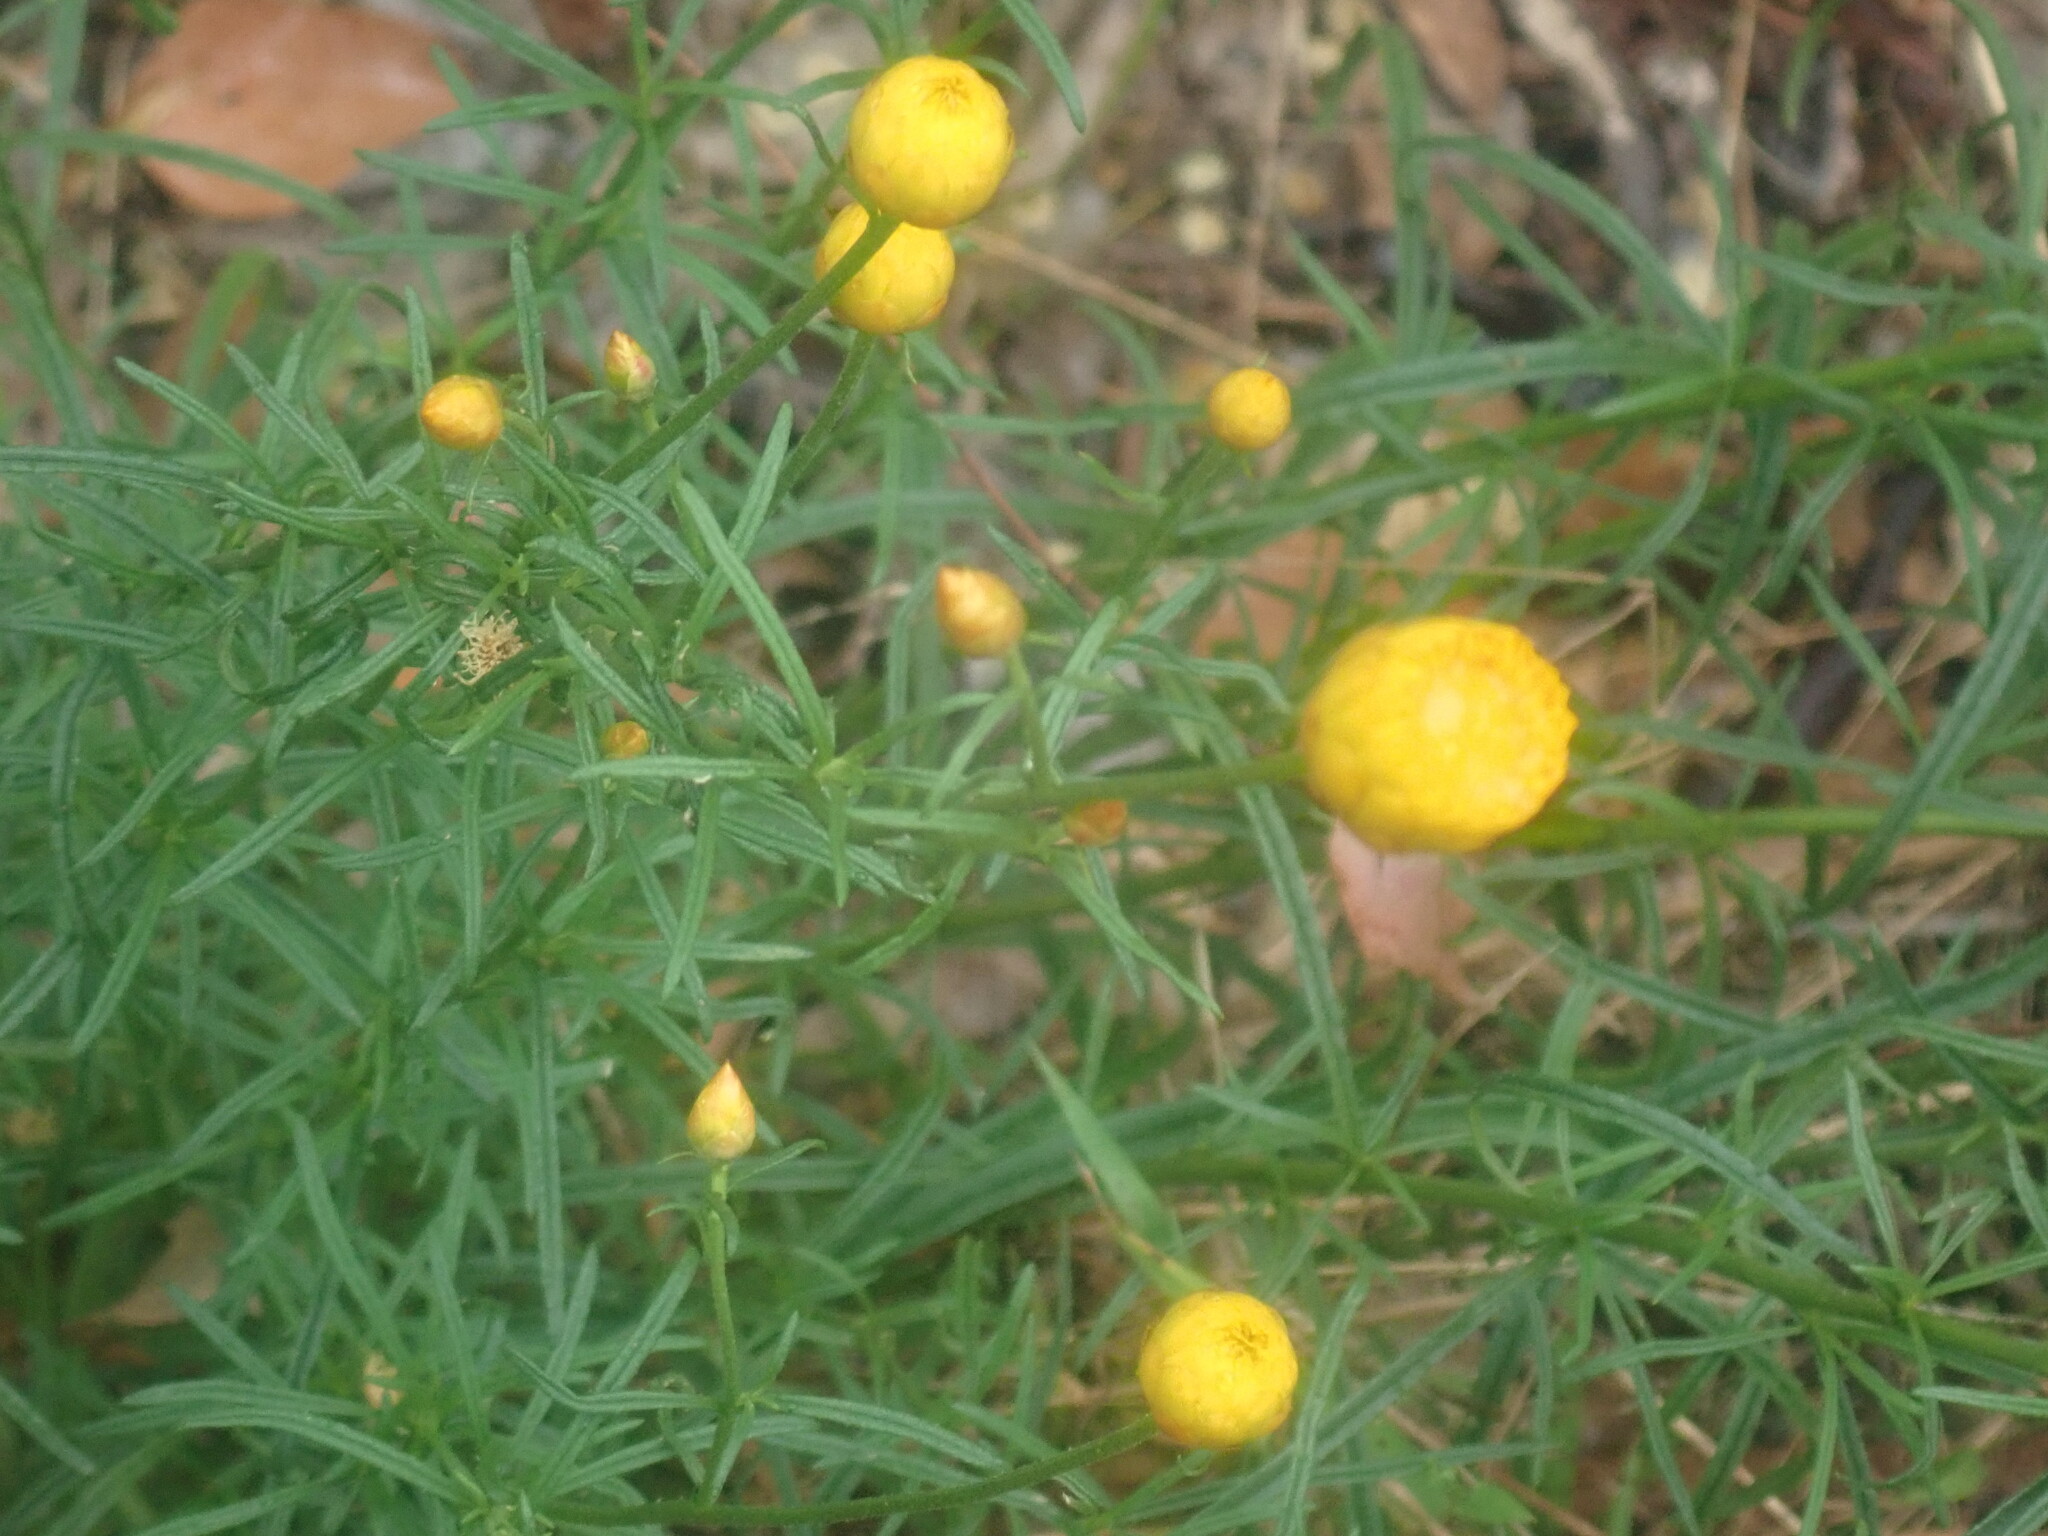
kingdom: Plantae
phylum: Tracheophyta
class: Magnoliopsida
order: Asterales
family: Asteraceae
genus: Xerochrysum
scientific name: Xerochrysum viscosum
